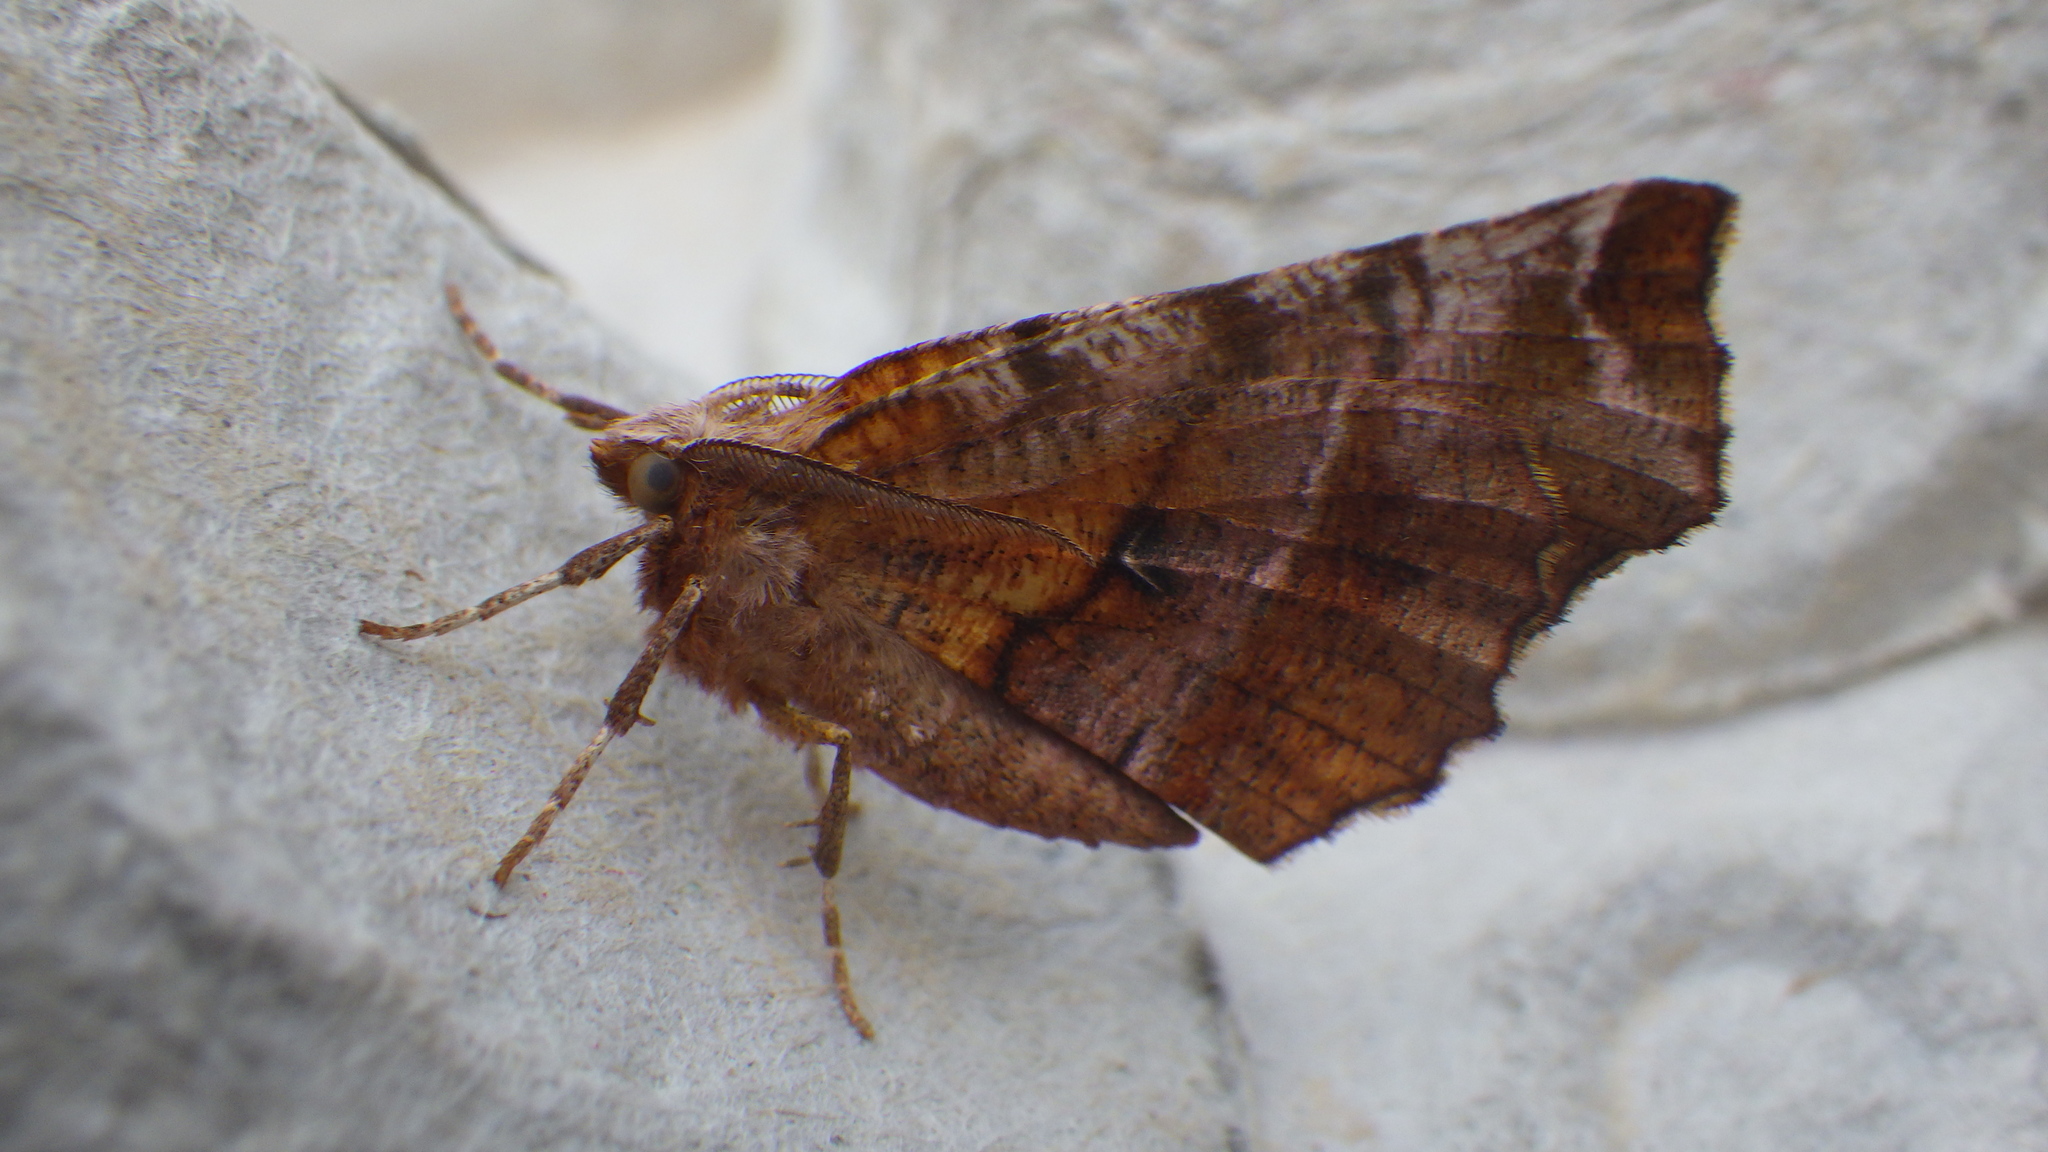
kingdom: Animalia
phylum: Arthropoda
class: Insecta
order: Lepidoptera
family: Geometridae
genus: Selenia
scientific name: Selenia dentaria
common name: Early thorn
